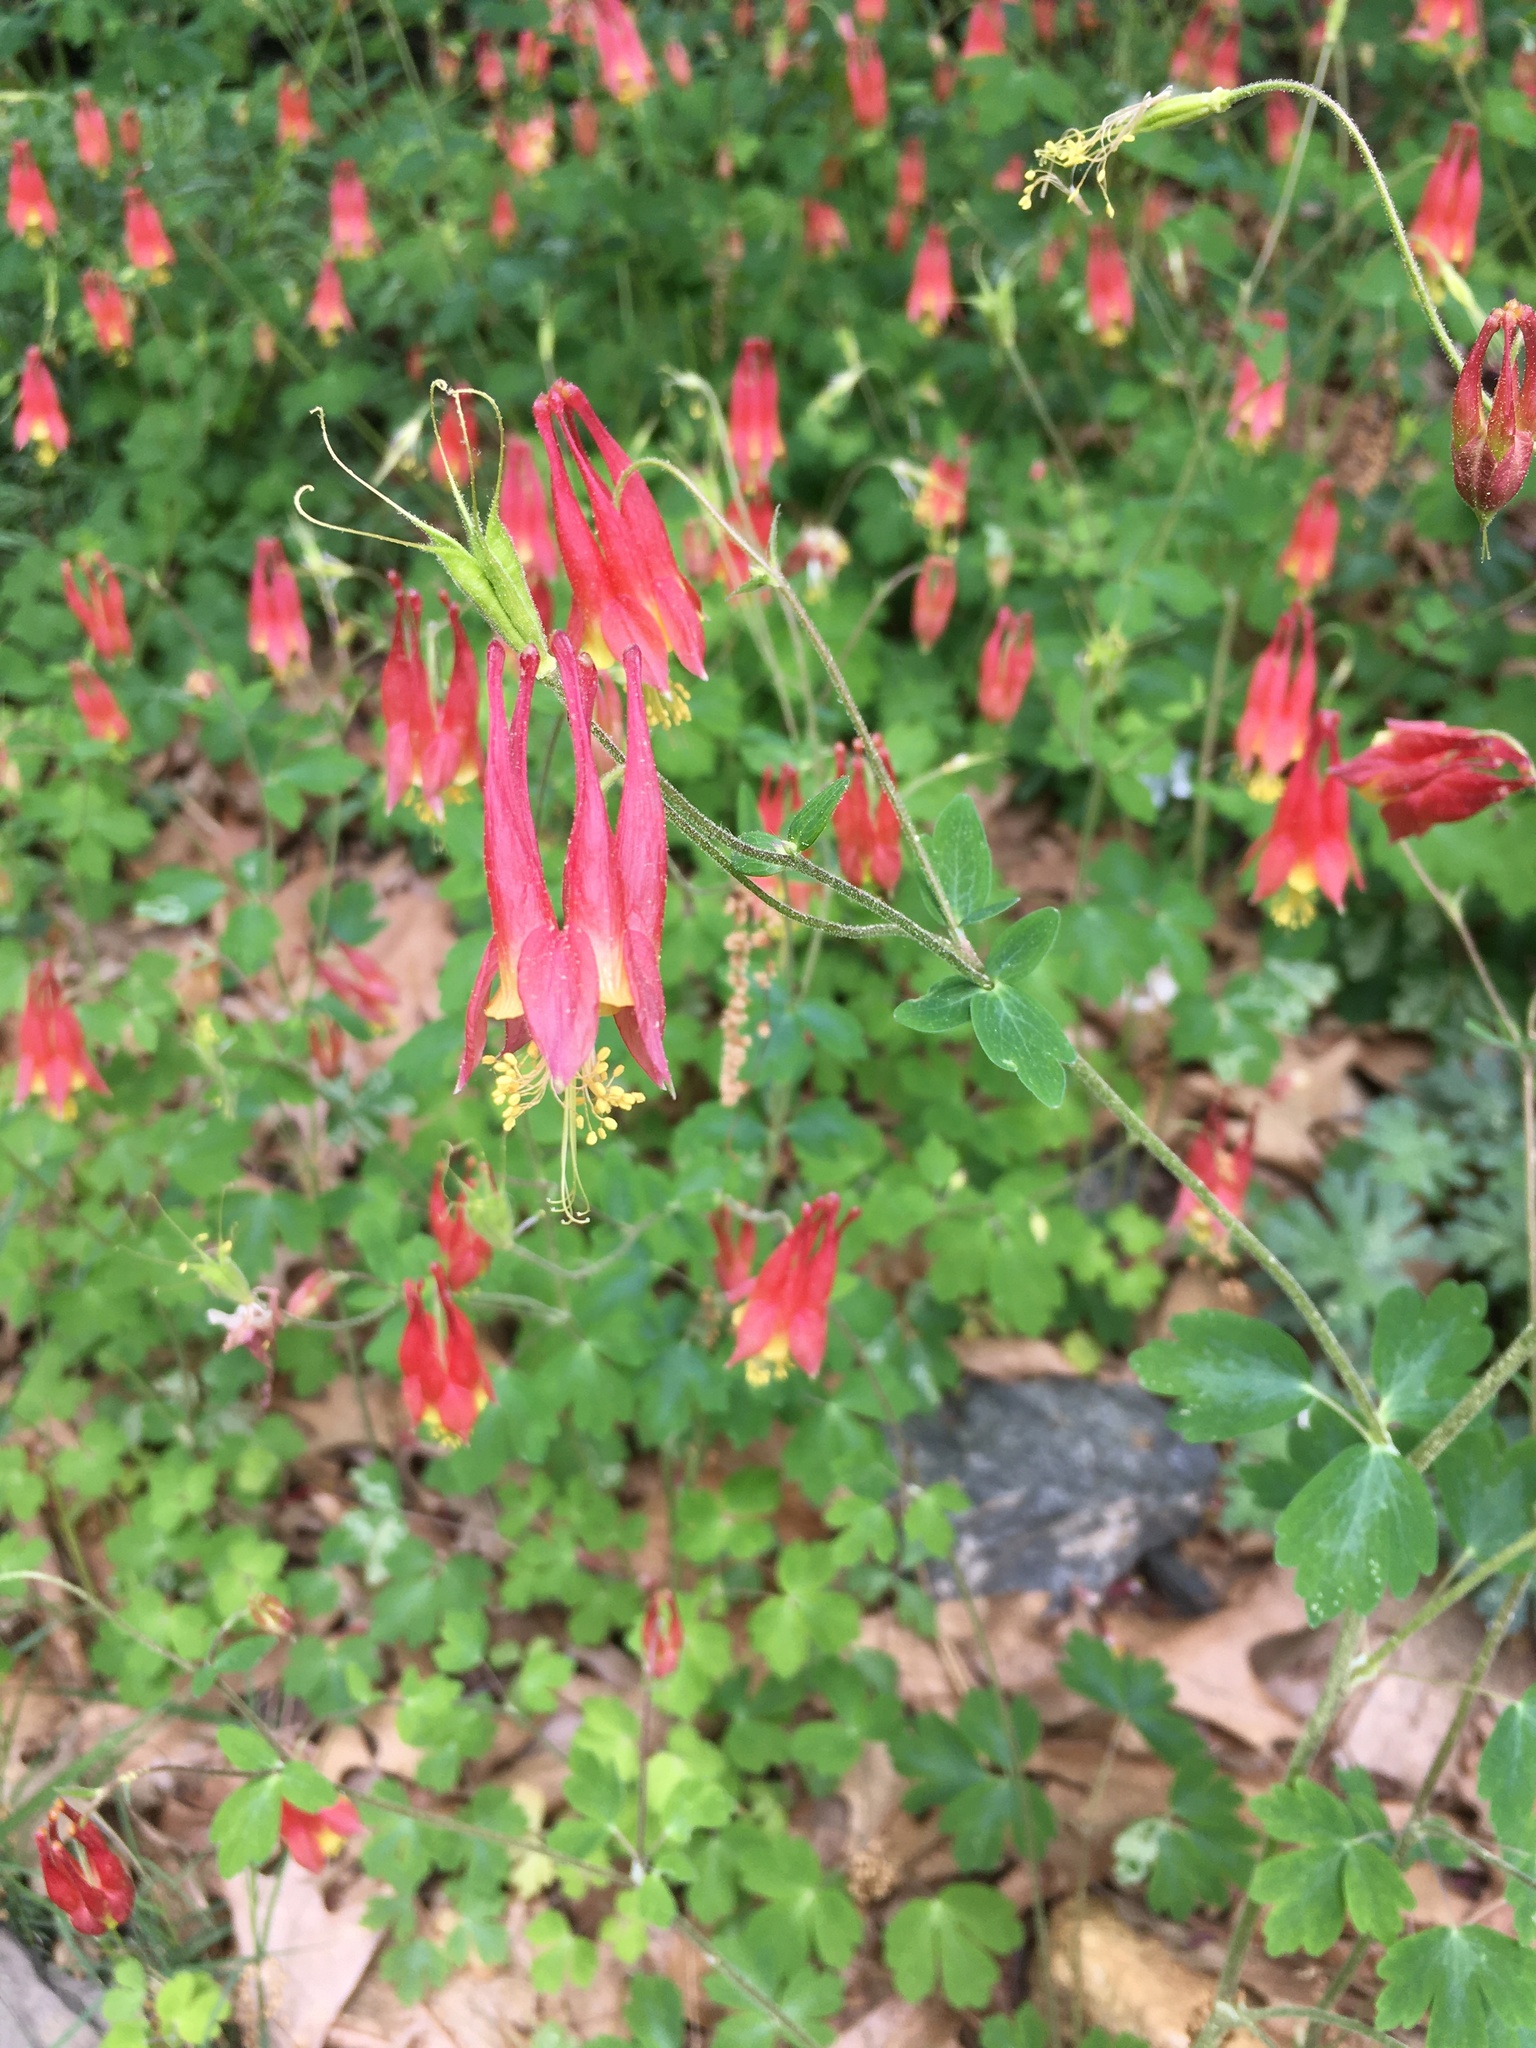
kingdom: Plantae
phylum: Tracheophyta
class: Magnoliopsida
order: Ranunculales
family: Ranunculaceae
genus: Aquilegia
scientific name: Aquilegia canadensis
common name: American columbine
